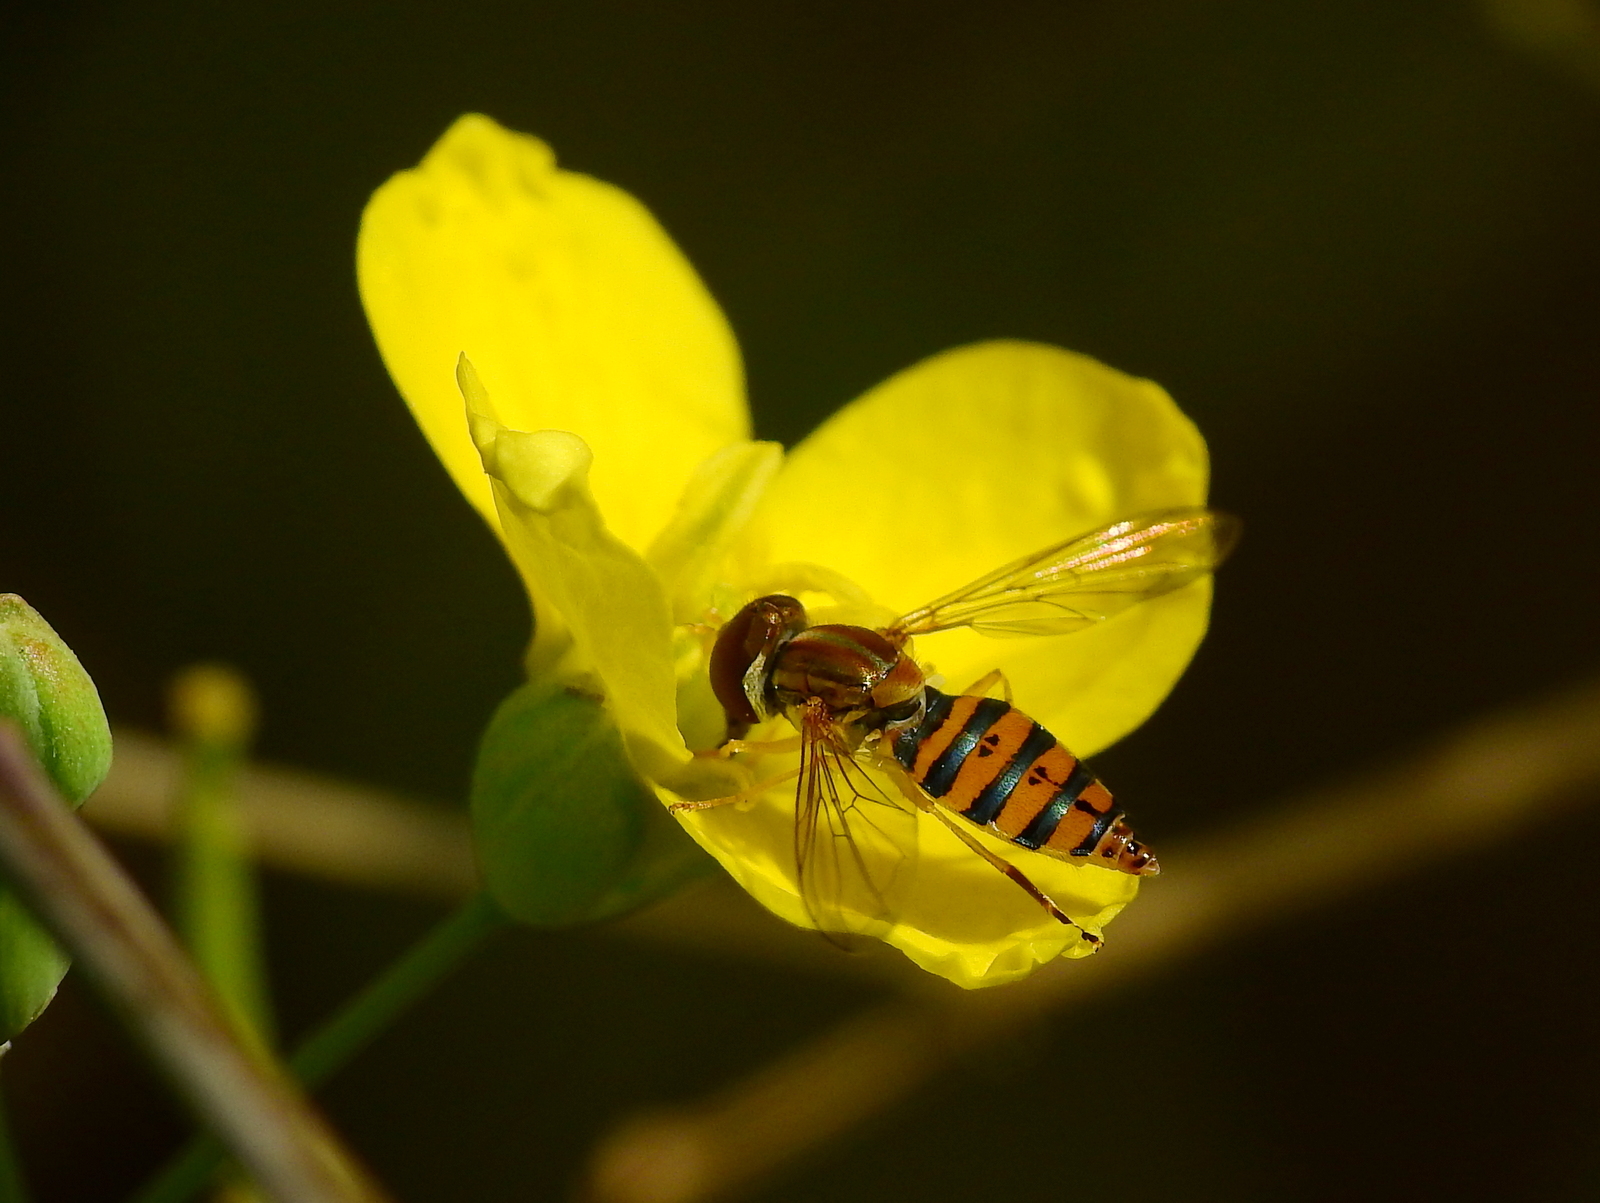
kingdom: Animalia
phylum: Arthropoda
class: Insecta
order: Diptera
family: Syrphidae
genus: Toxomerus
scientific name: Toxomerus
